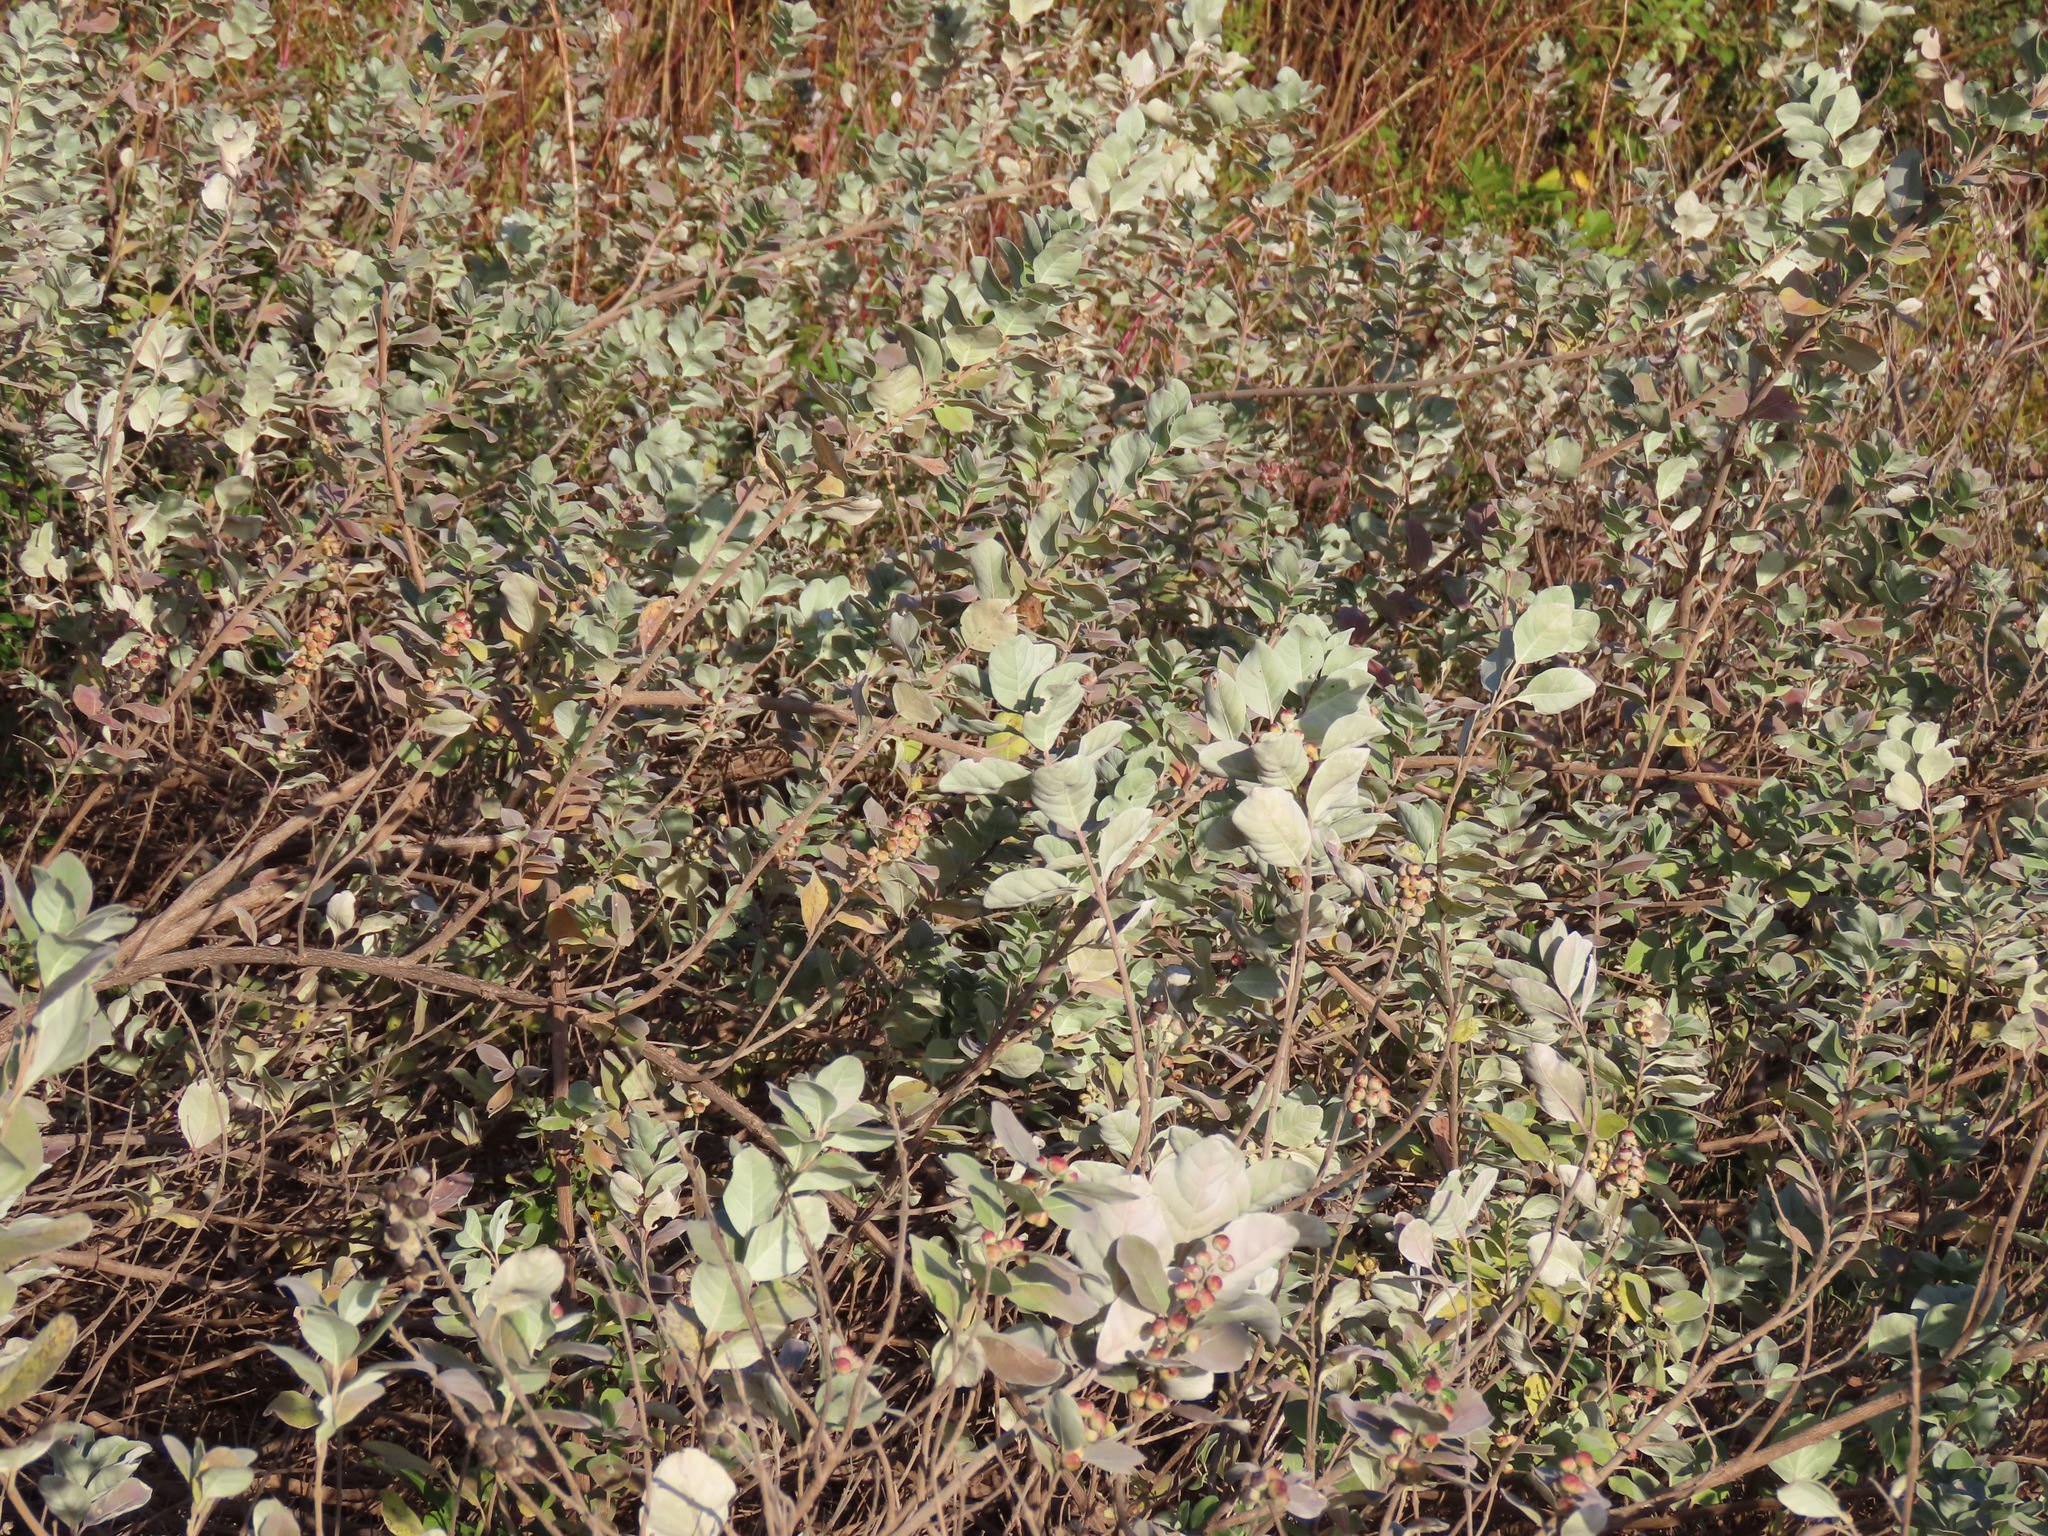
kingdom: Plantae
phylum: Tracheophyta
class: Magnoliopsida
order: Lamiales
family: Lamiaceae
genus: Vitex
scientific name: Vitex rotundifolia
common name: Beach vitex
